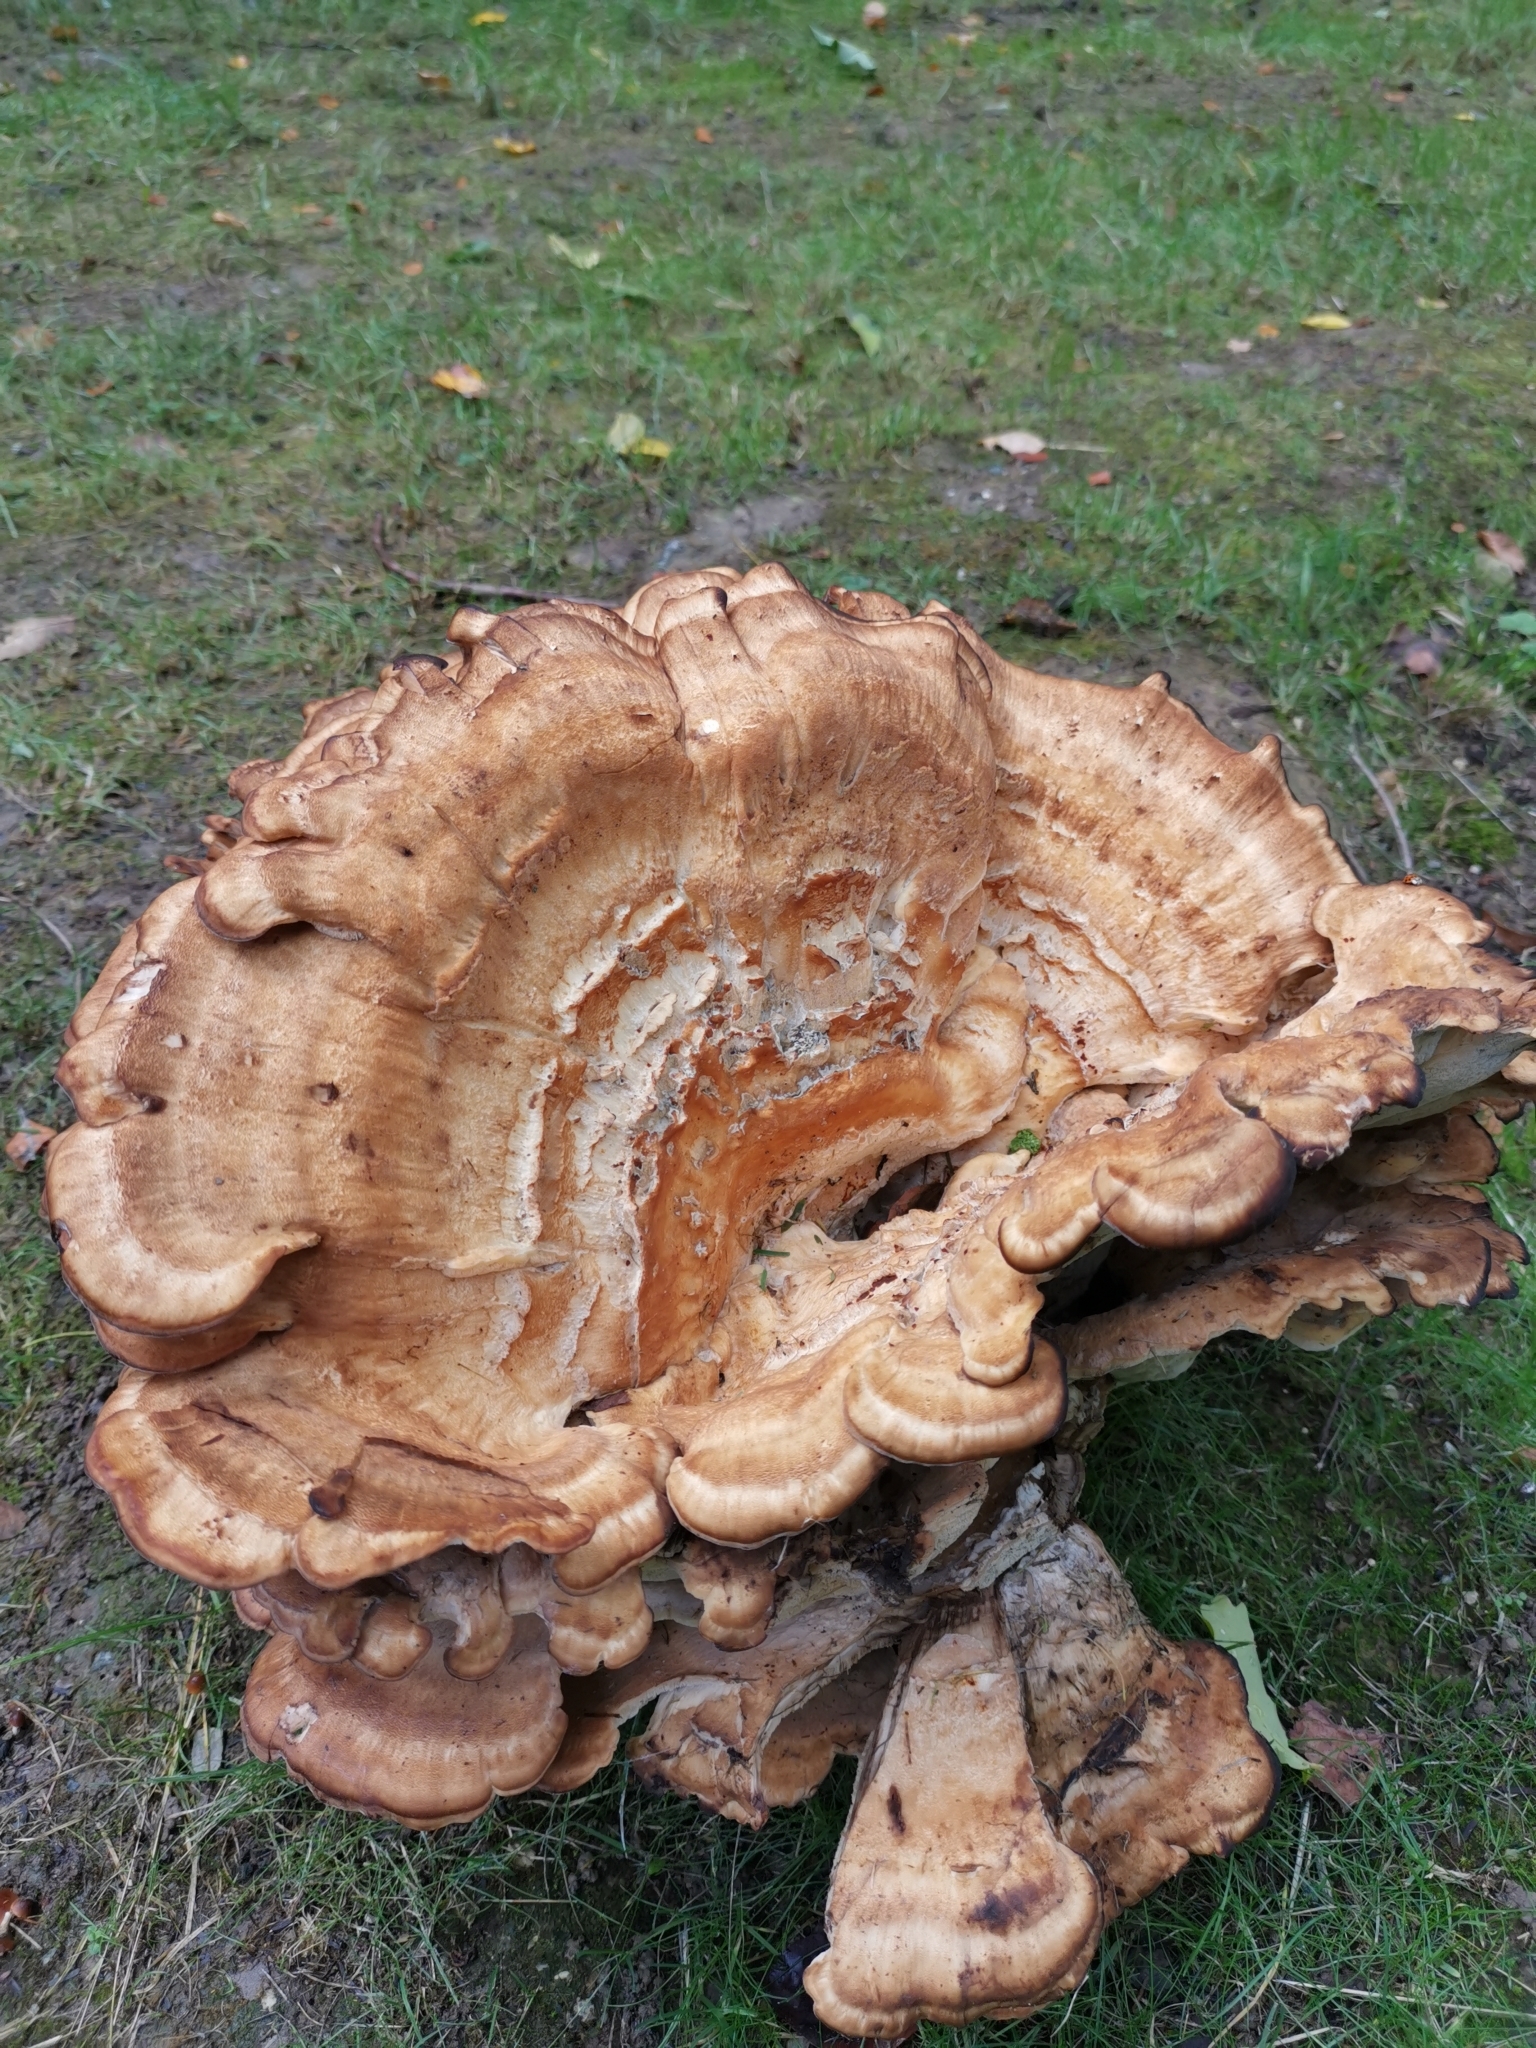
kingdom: Fungi
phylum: Basidiomycota
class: Agaricomycetes
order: Polyporales
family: Meripilaceae
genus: Meripilus
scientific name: Meripilus giganteus
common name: Giant polypore
